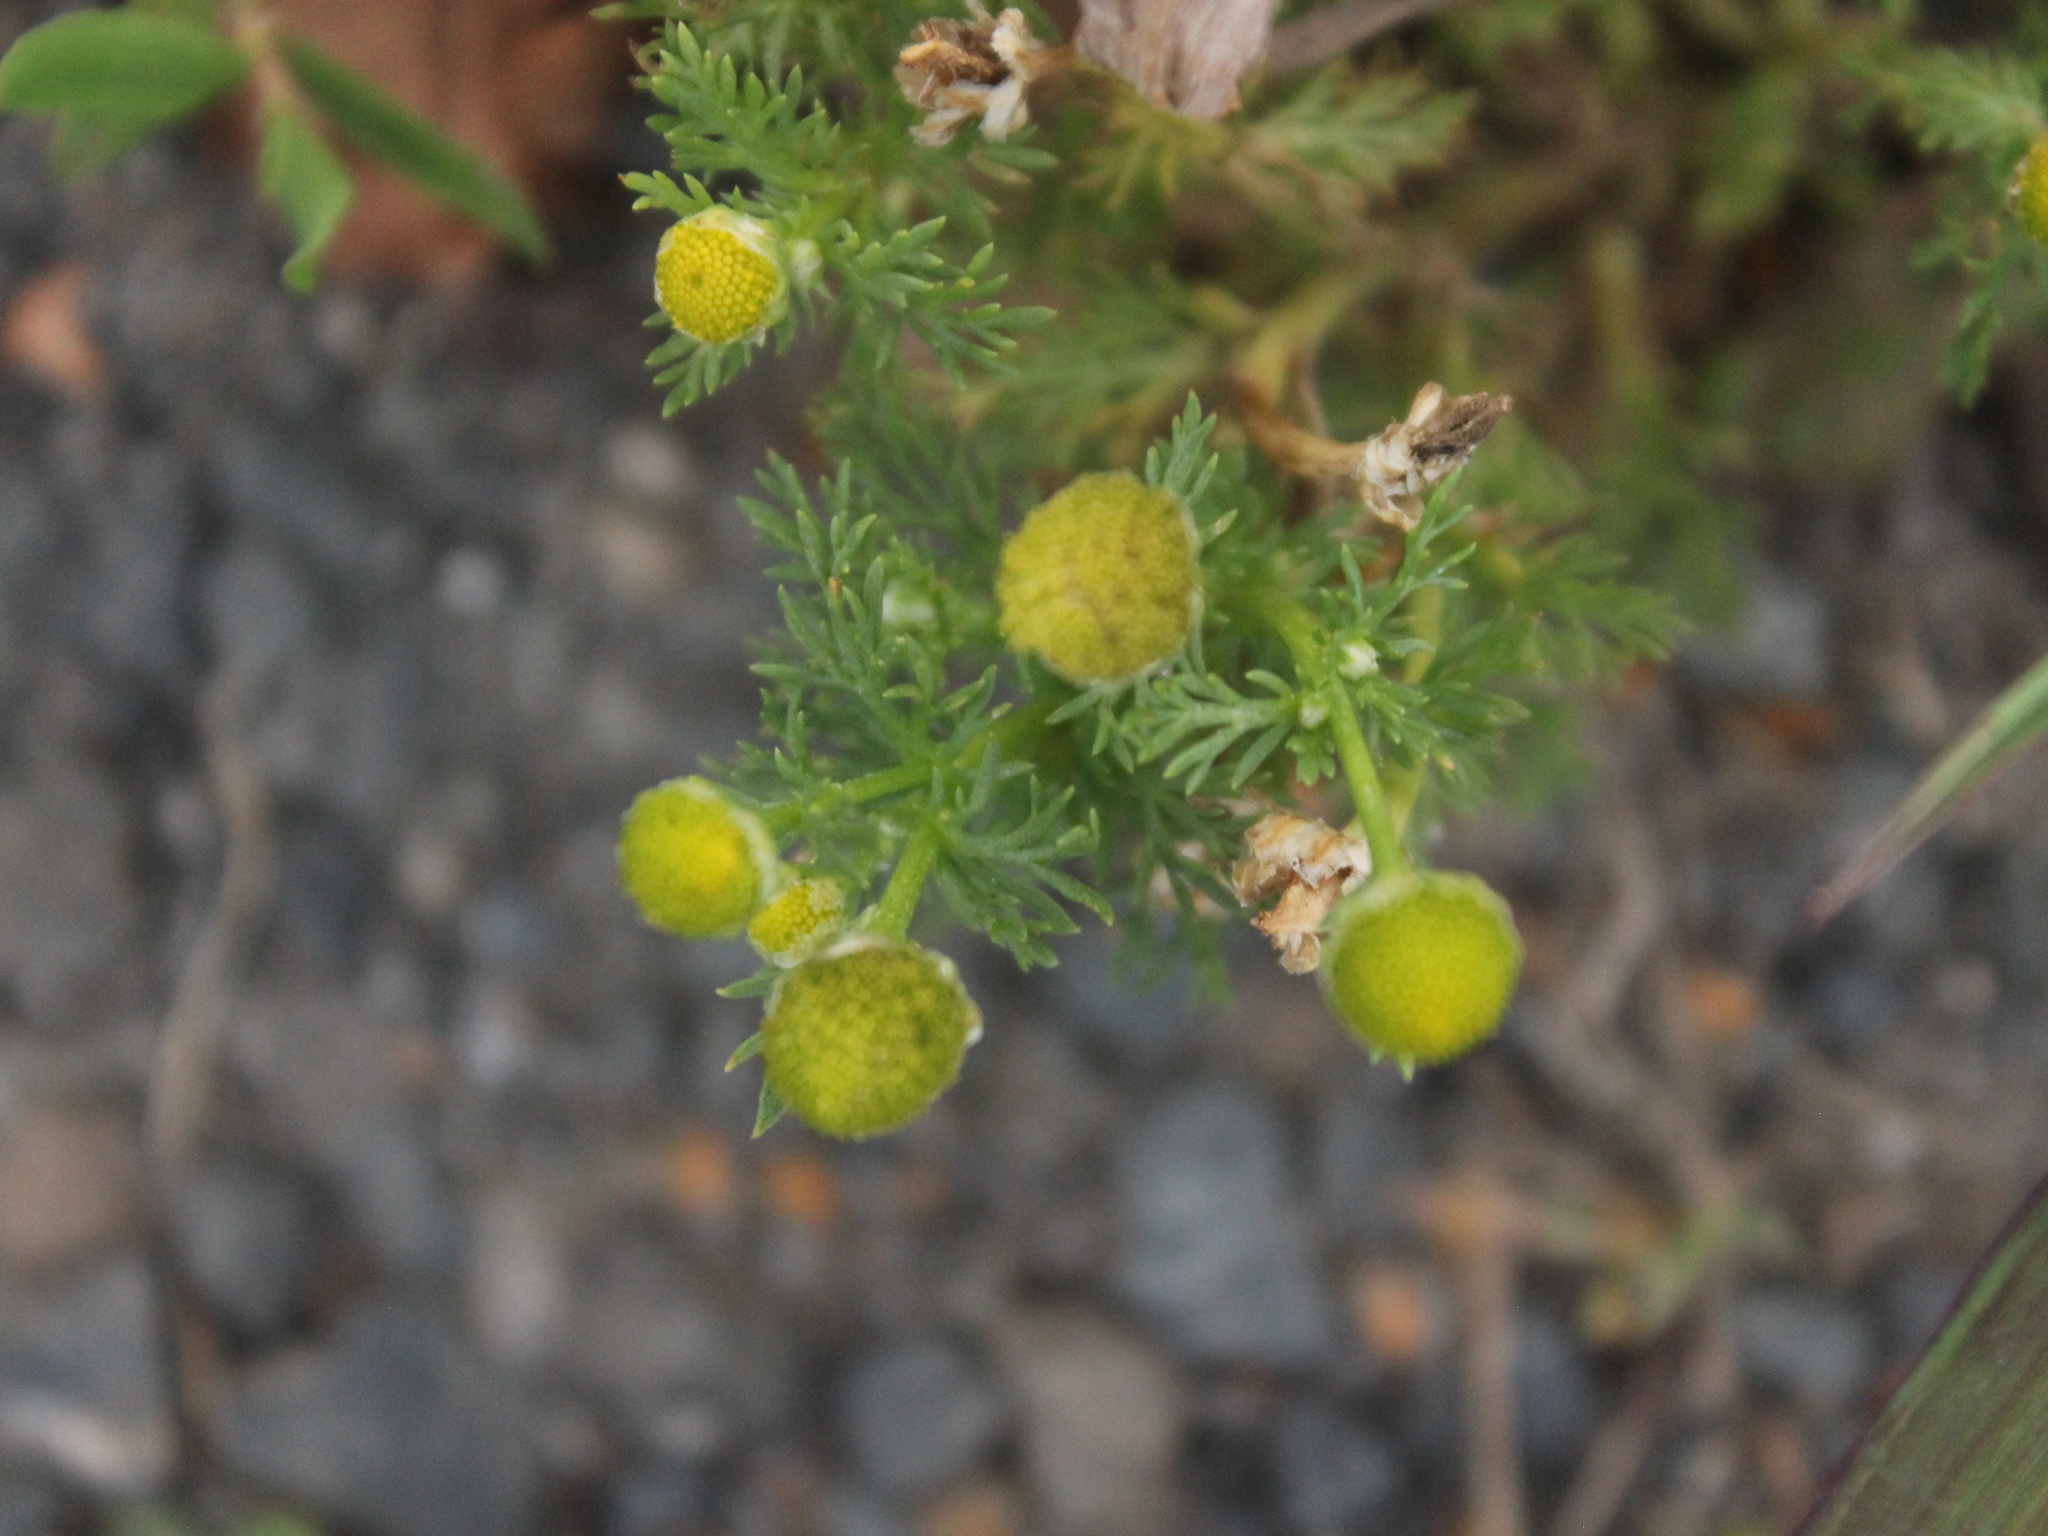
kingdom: Plantae
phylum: Tracheophyta
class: Magnoliopsida
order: Asterales
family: Asteraceae
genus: Matricaria
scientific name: Matricaria discoidea
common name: Disc mayweed
